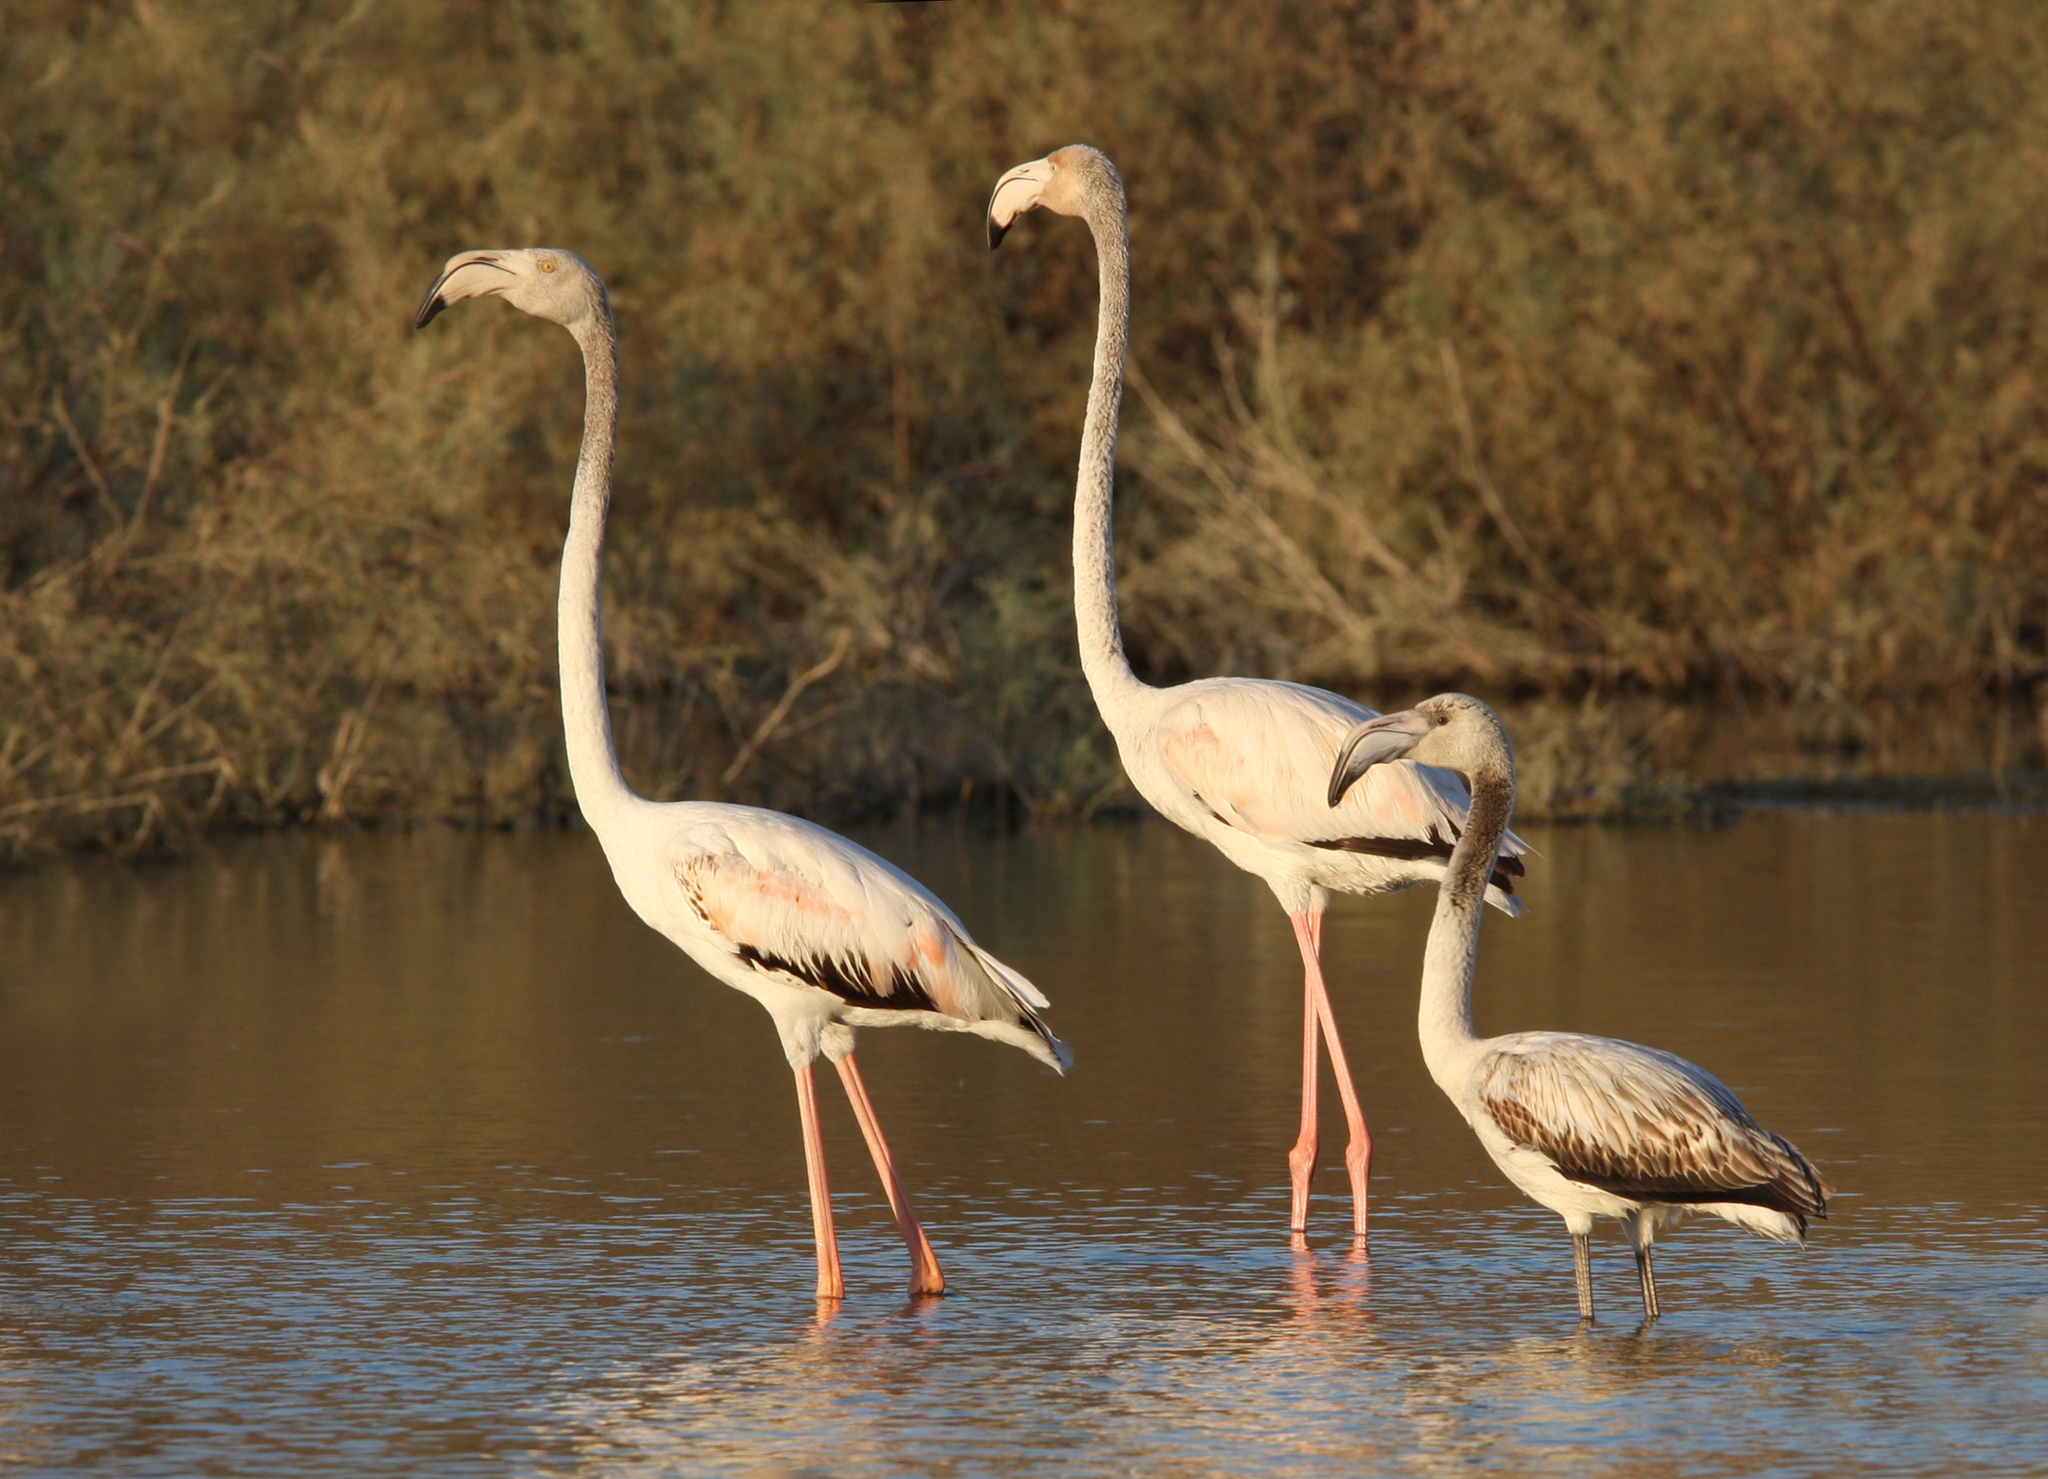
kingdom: Animalia
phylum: Chordata
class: Aves
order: Phoenicopteriformes
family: Phoenicopteridae
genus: Phoenicopterus
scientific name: Phoenicopterus roseus
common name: Greater flamingo
